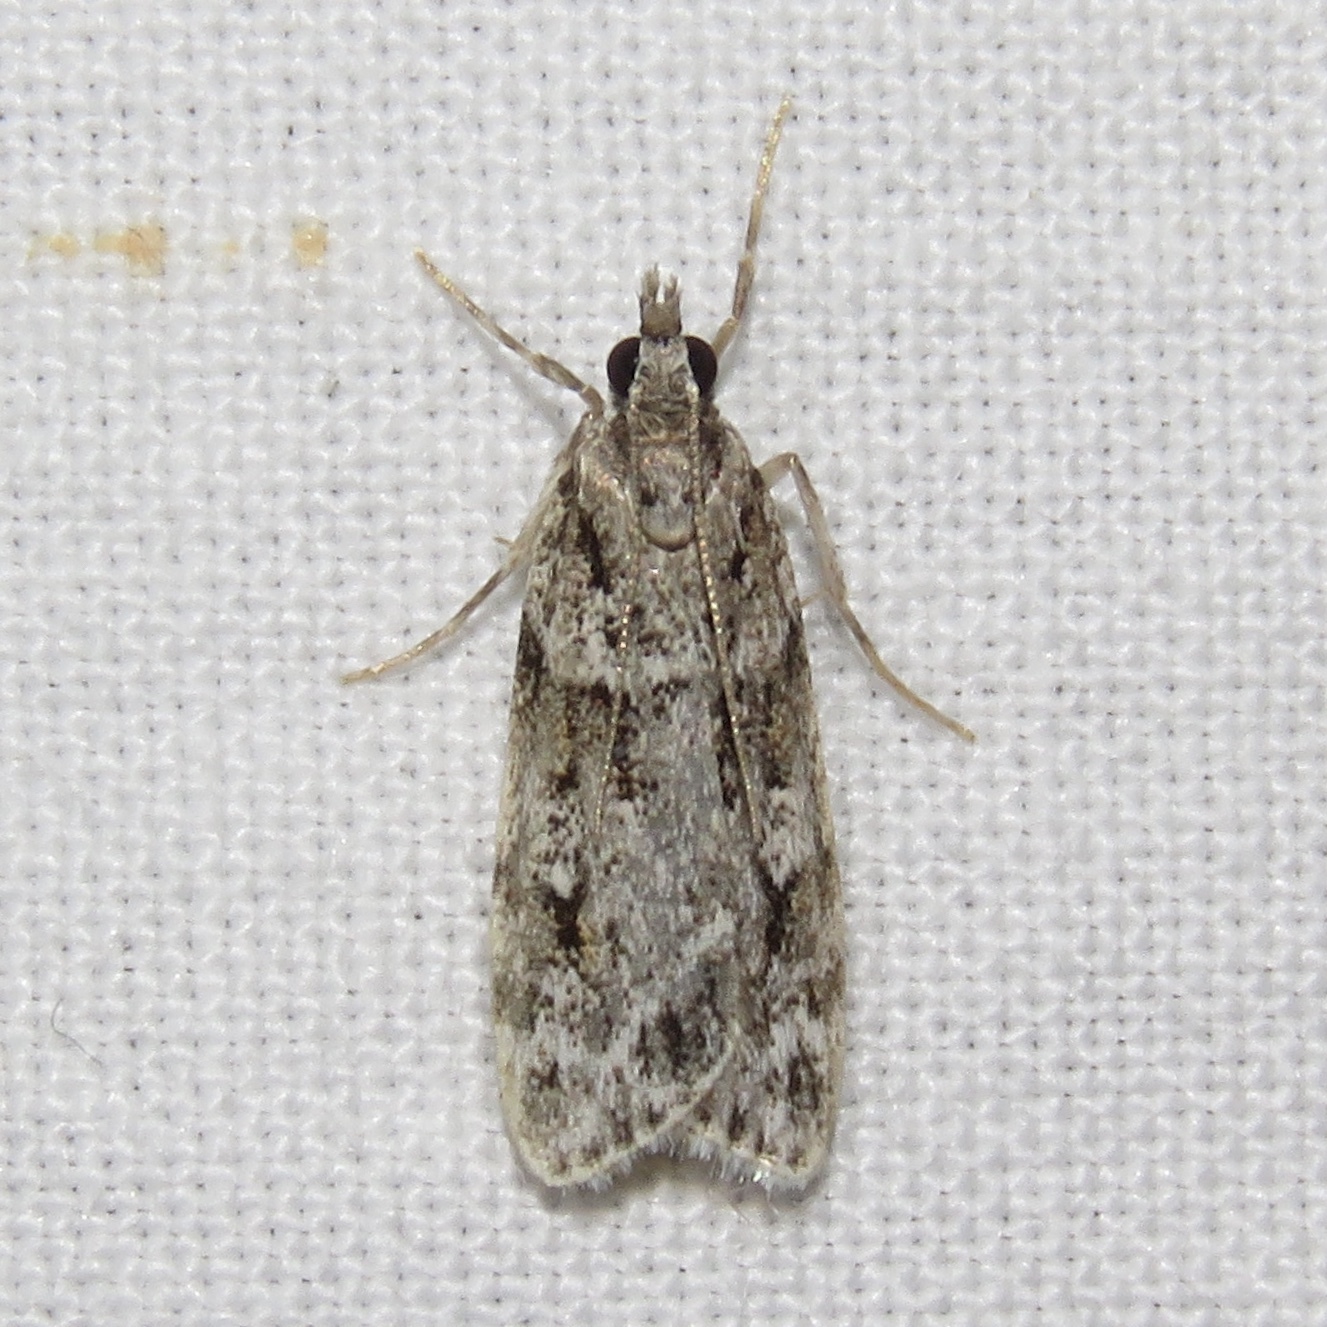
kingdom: Animalia
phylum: Arthropoda
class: Insecta
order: Lepidoptera
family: Crambidae
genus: Scoparia
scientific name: Scoparia biplagialis
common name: Double-striped scoparia moth
